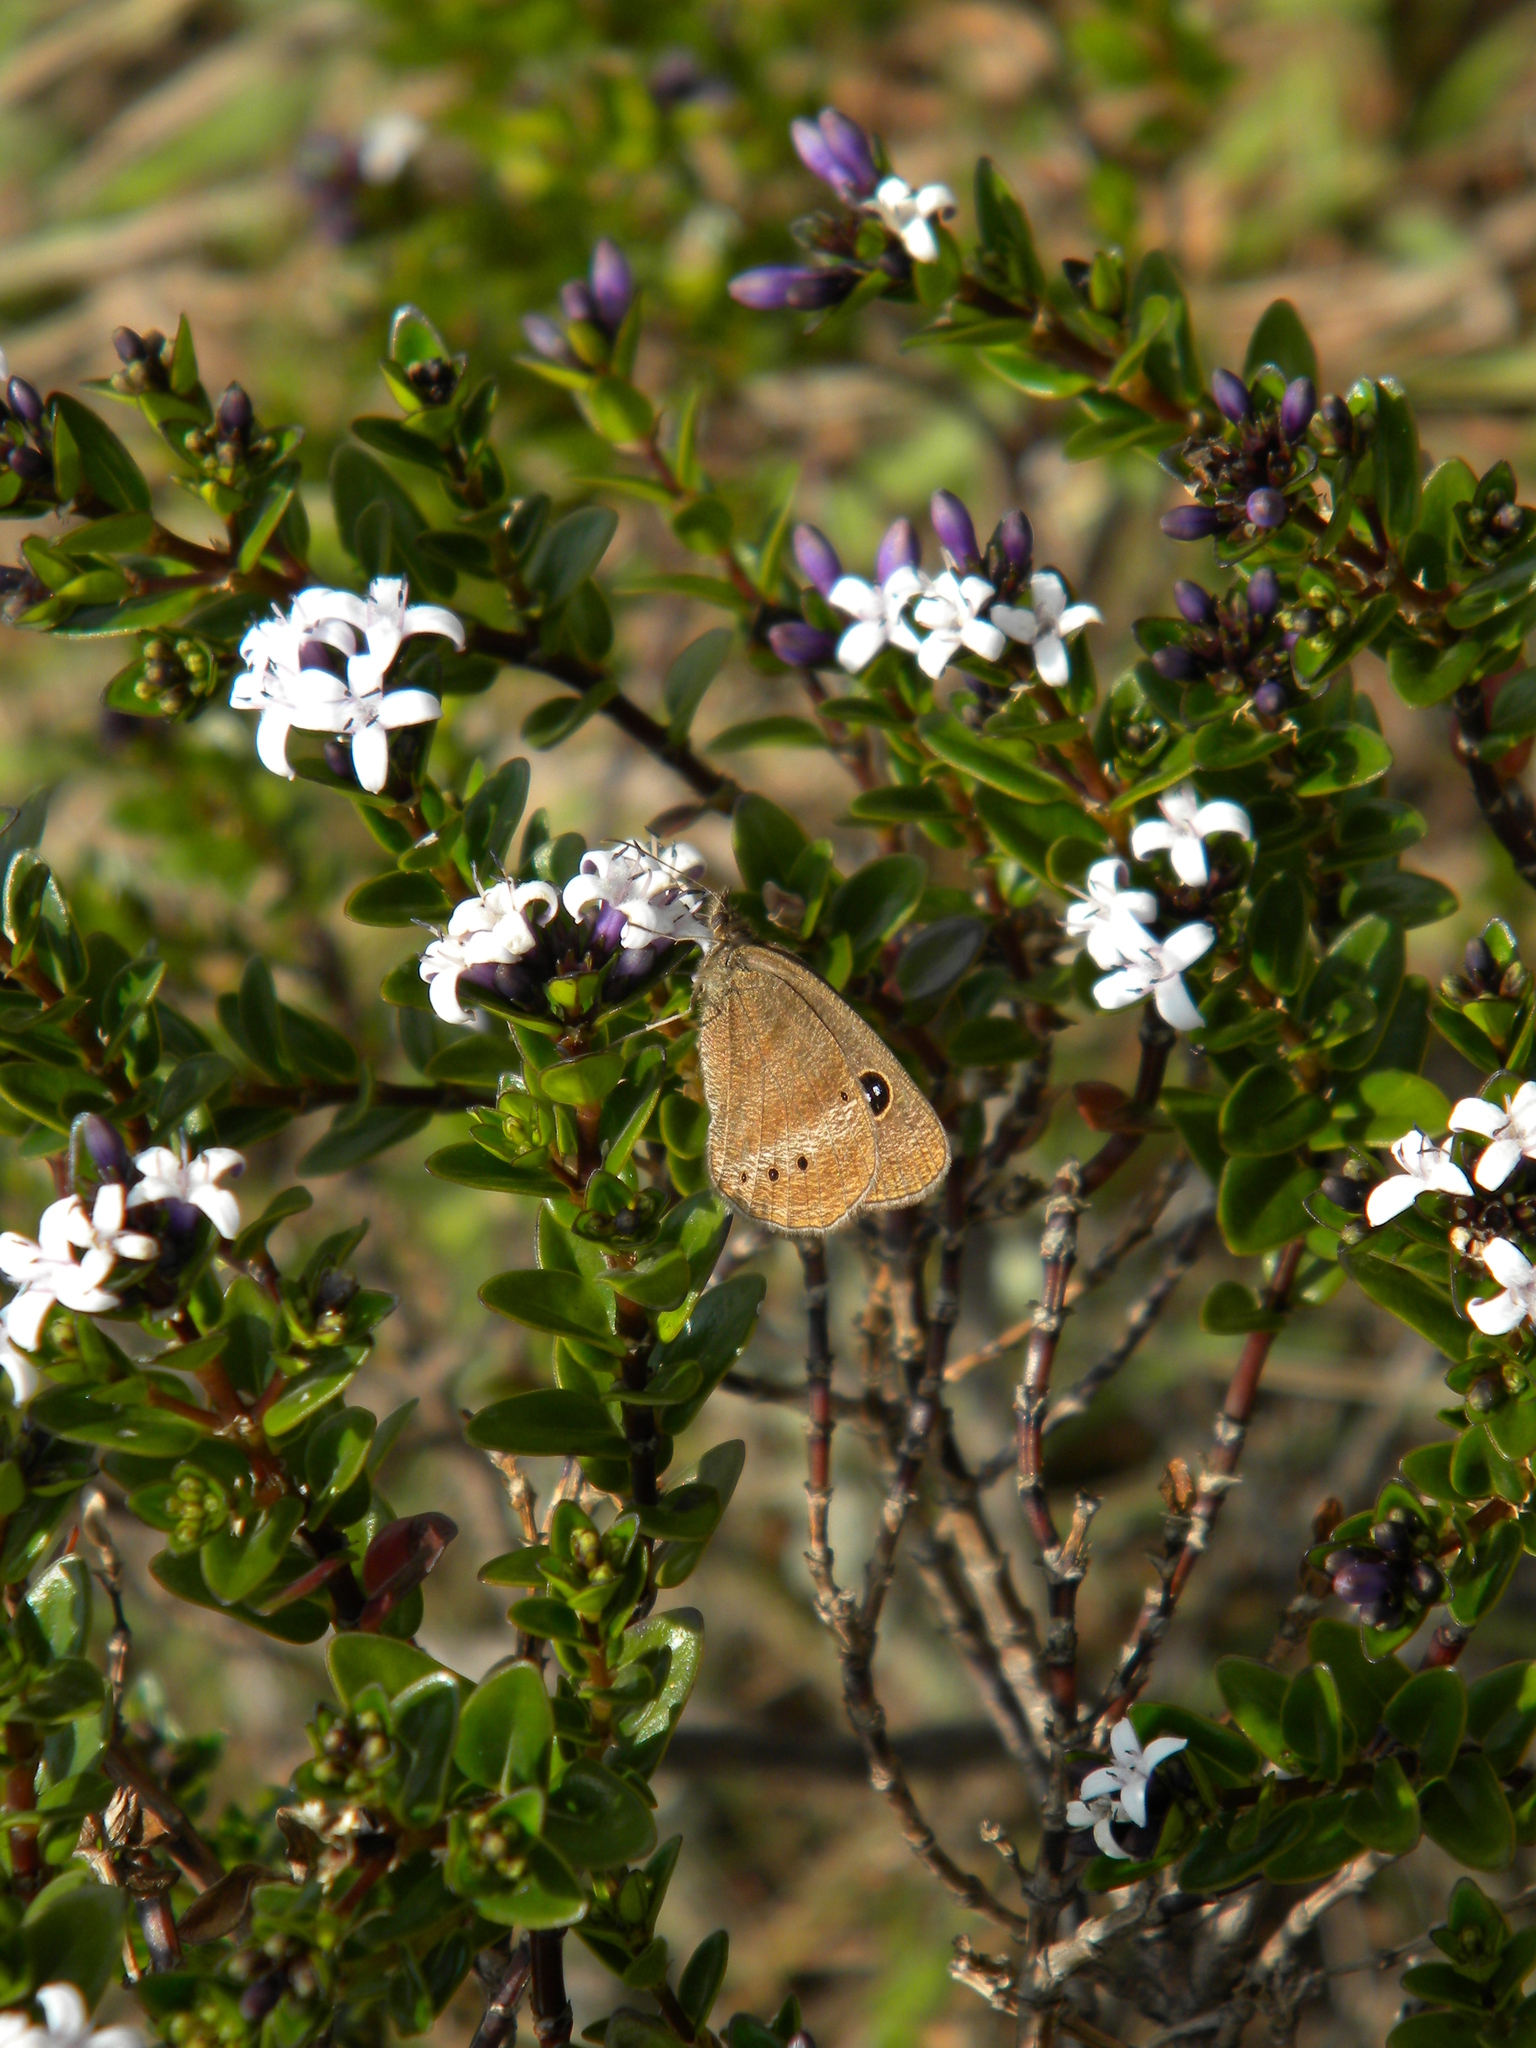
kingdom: Animalia
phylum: Arthropoda
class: Insecta
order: Lepidoptera
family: Nymphalidae
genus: Ypthima
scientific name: Ypthima ypthimoides
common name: Palni four-ring
